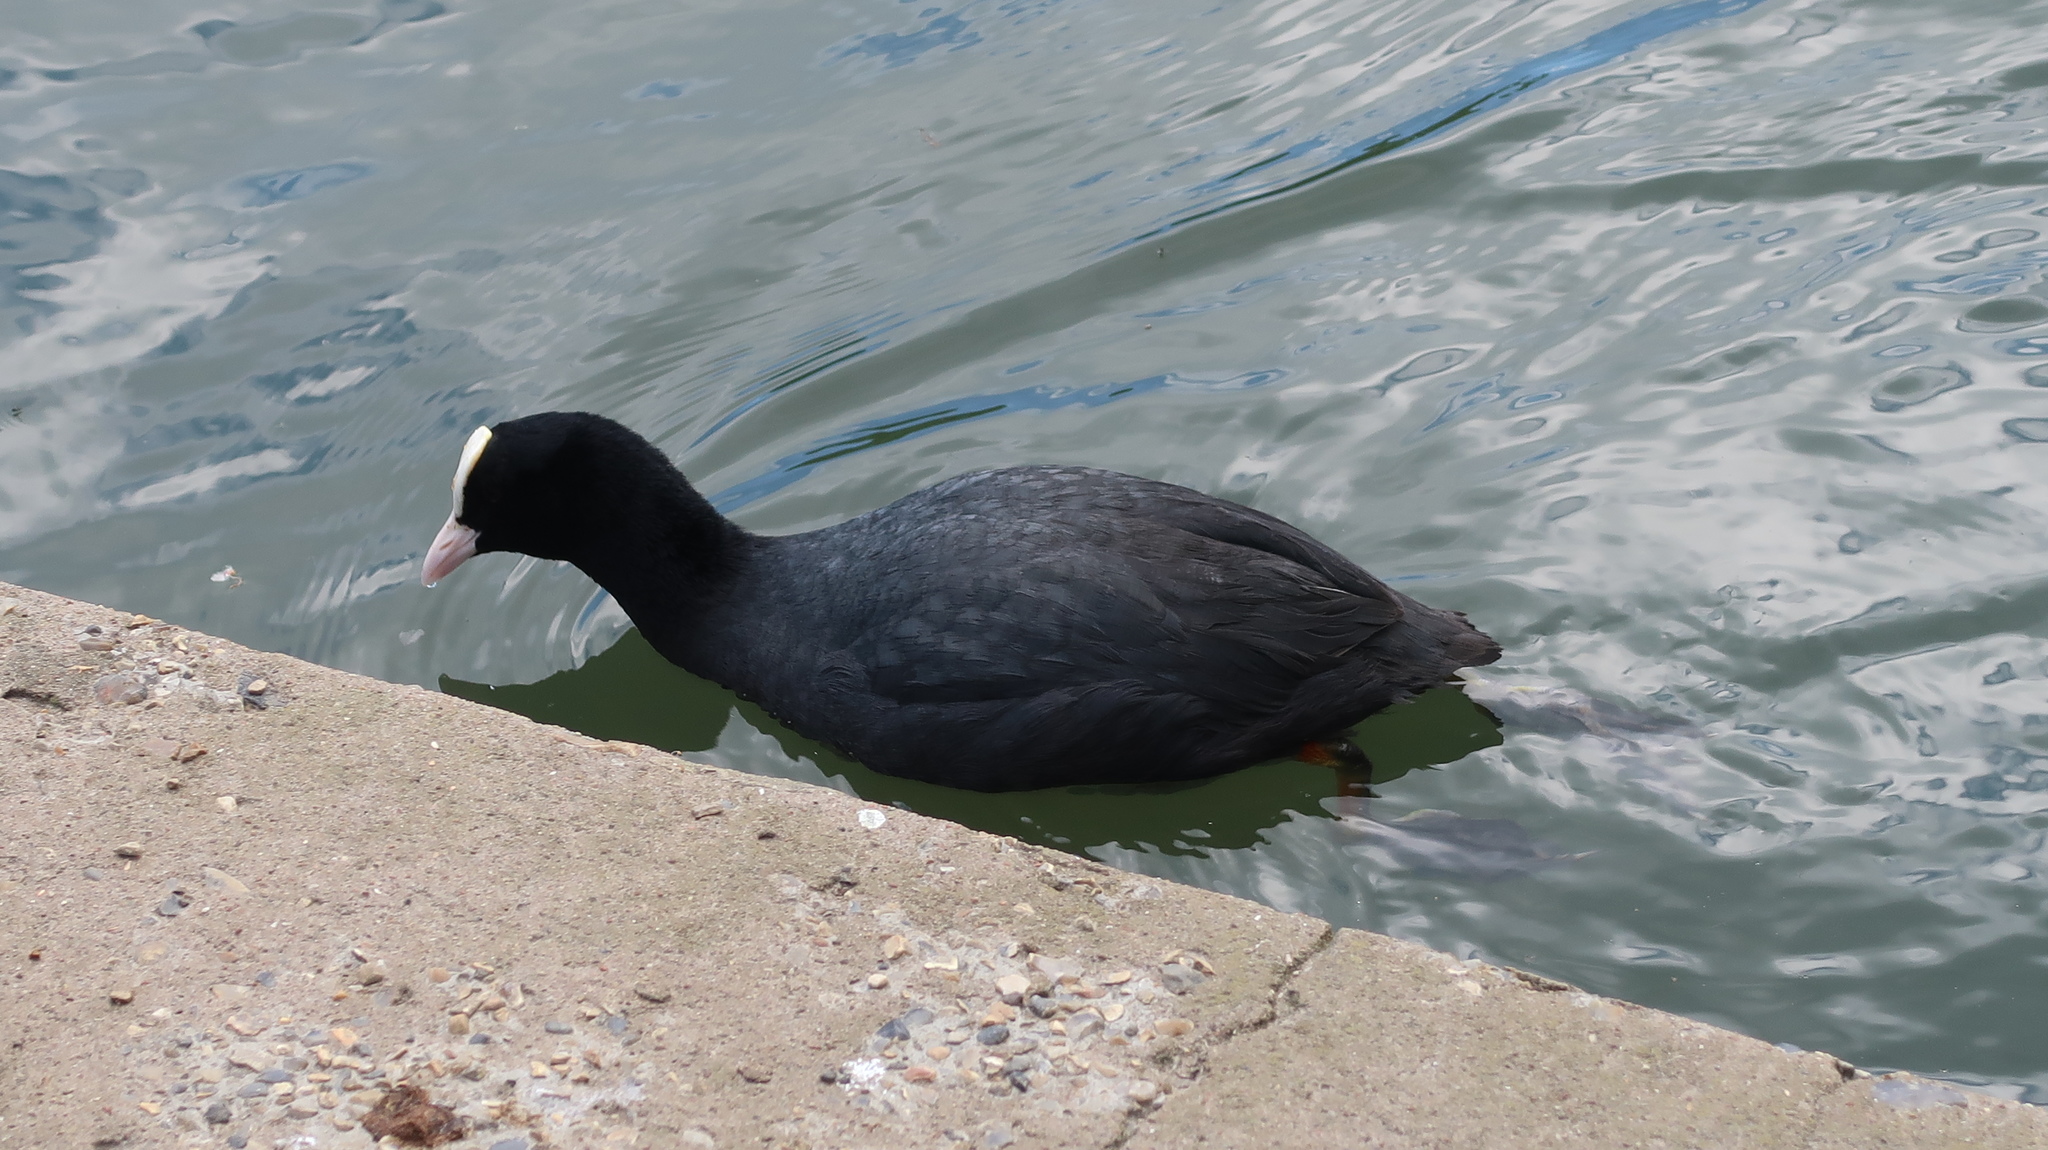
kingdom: Animalia
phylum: Chordata
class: Aves
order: Gruiformes
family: Rallidae
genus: Fulica
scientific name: Fulica atra
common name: Eurasian coot
